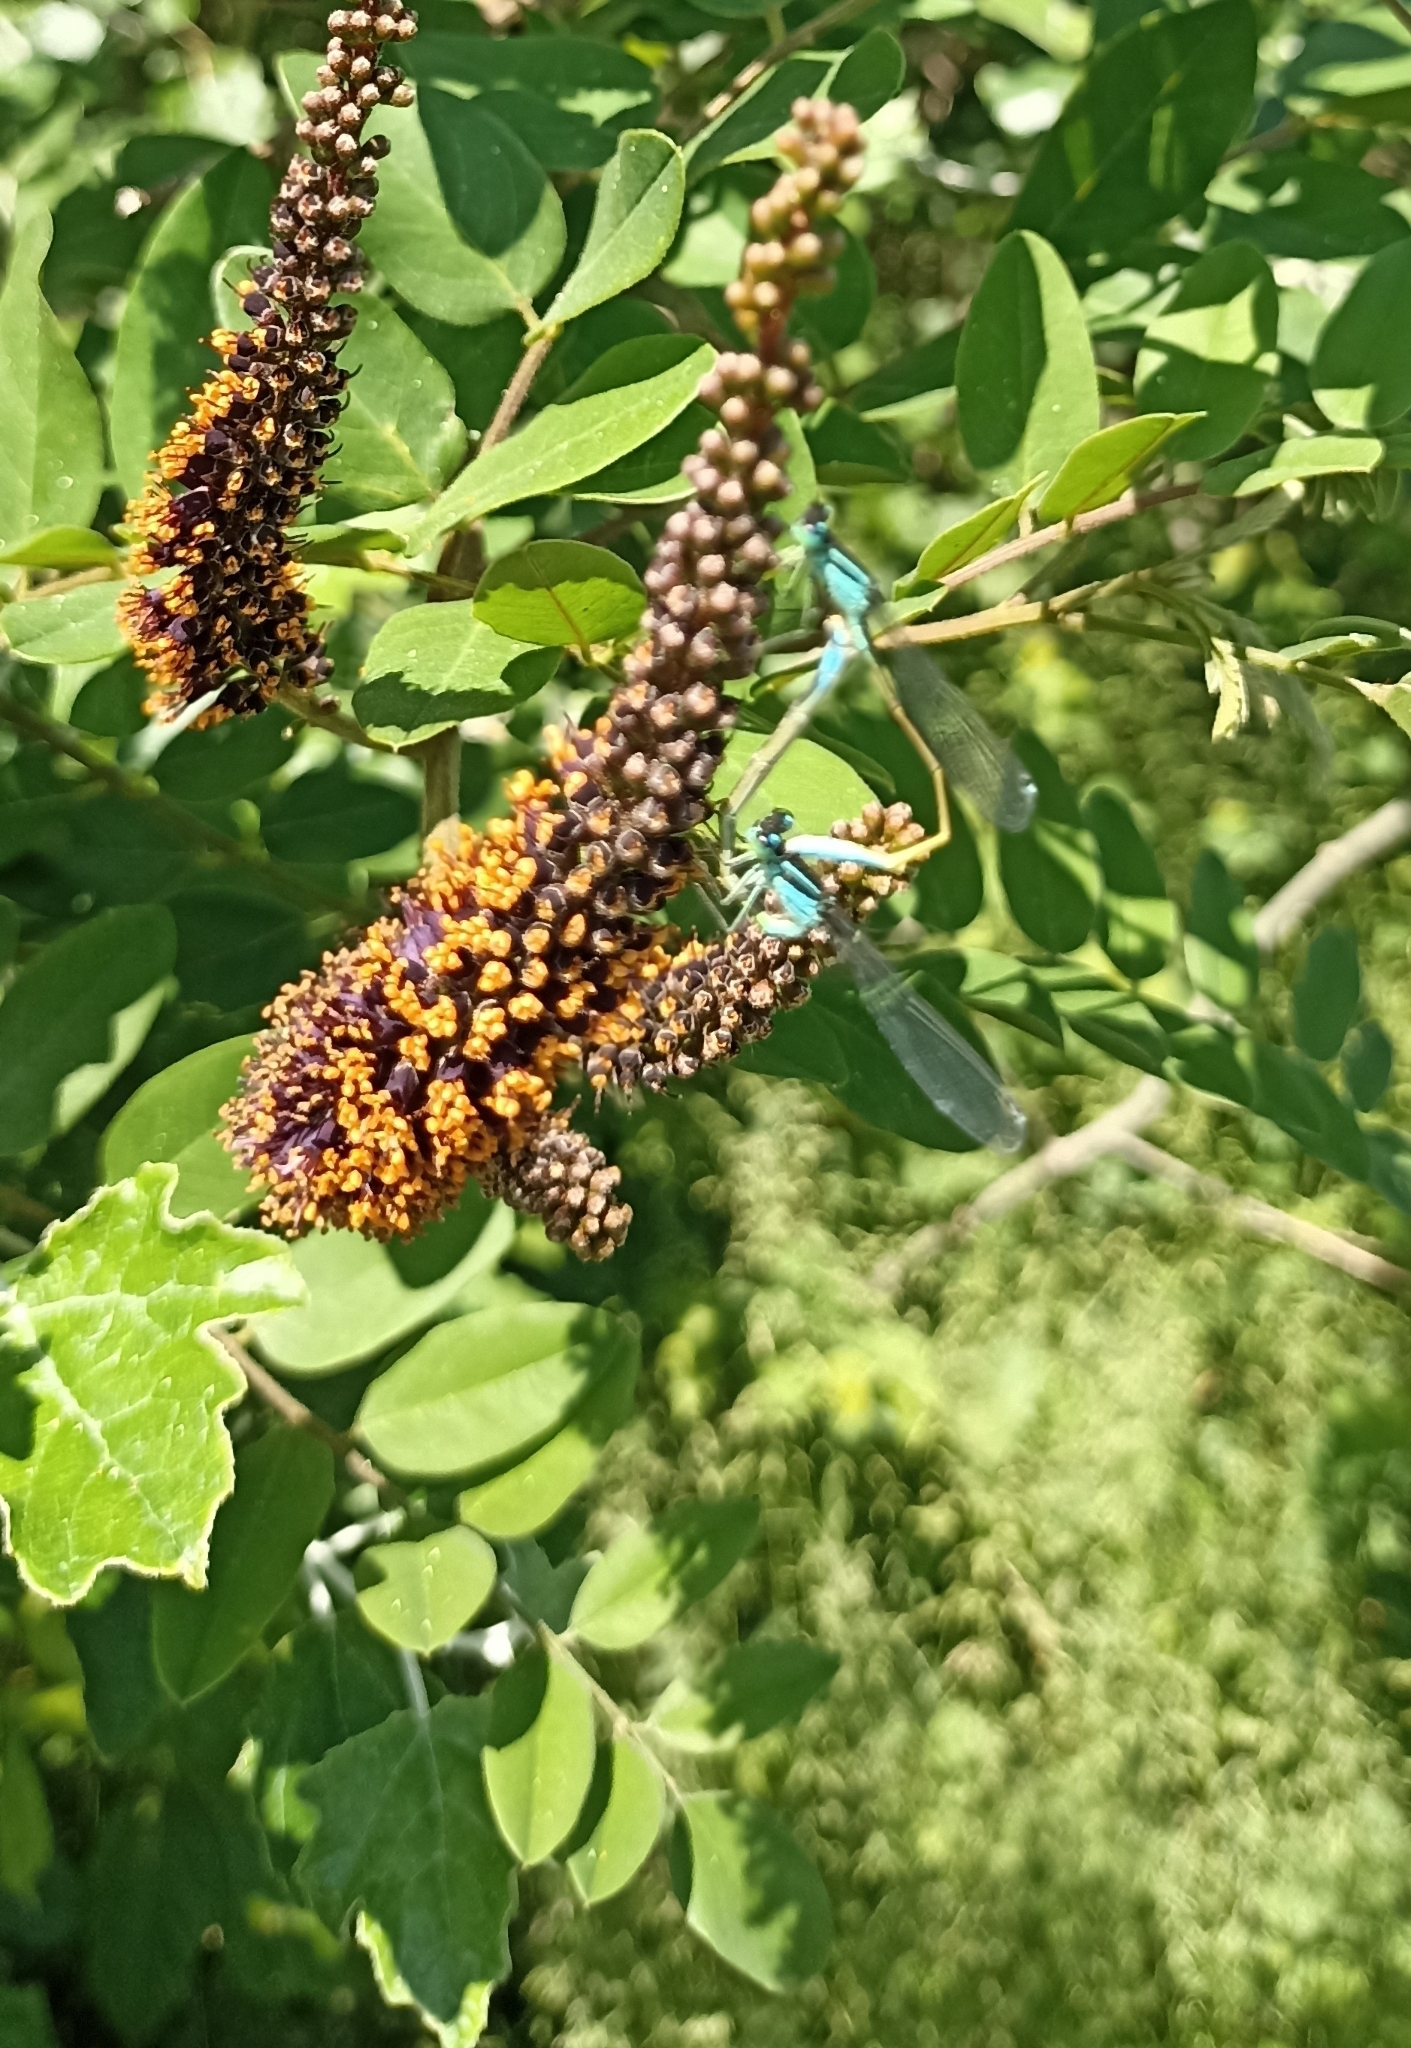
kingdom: Animalia
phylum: Arthropoda
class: Insecta
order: Odonata
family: Coenagrionidae
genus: Ischnura
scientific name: Ischnura elegans
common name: Blue-tailed damselfly
